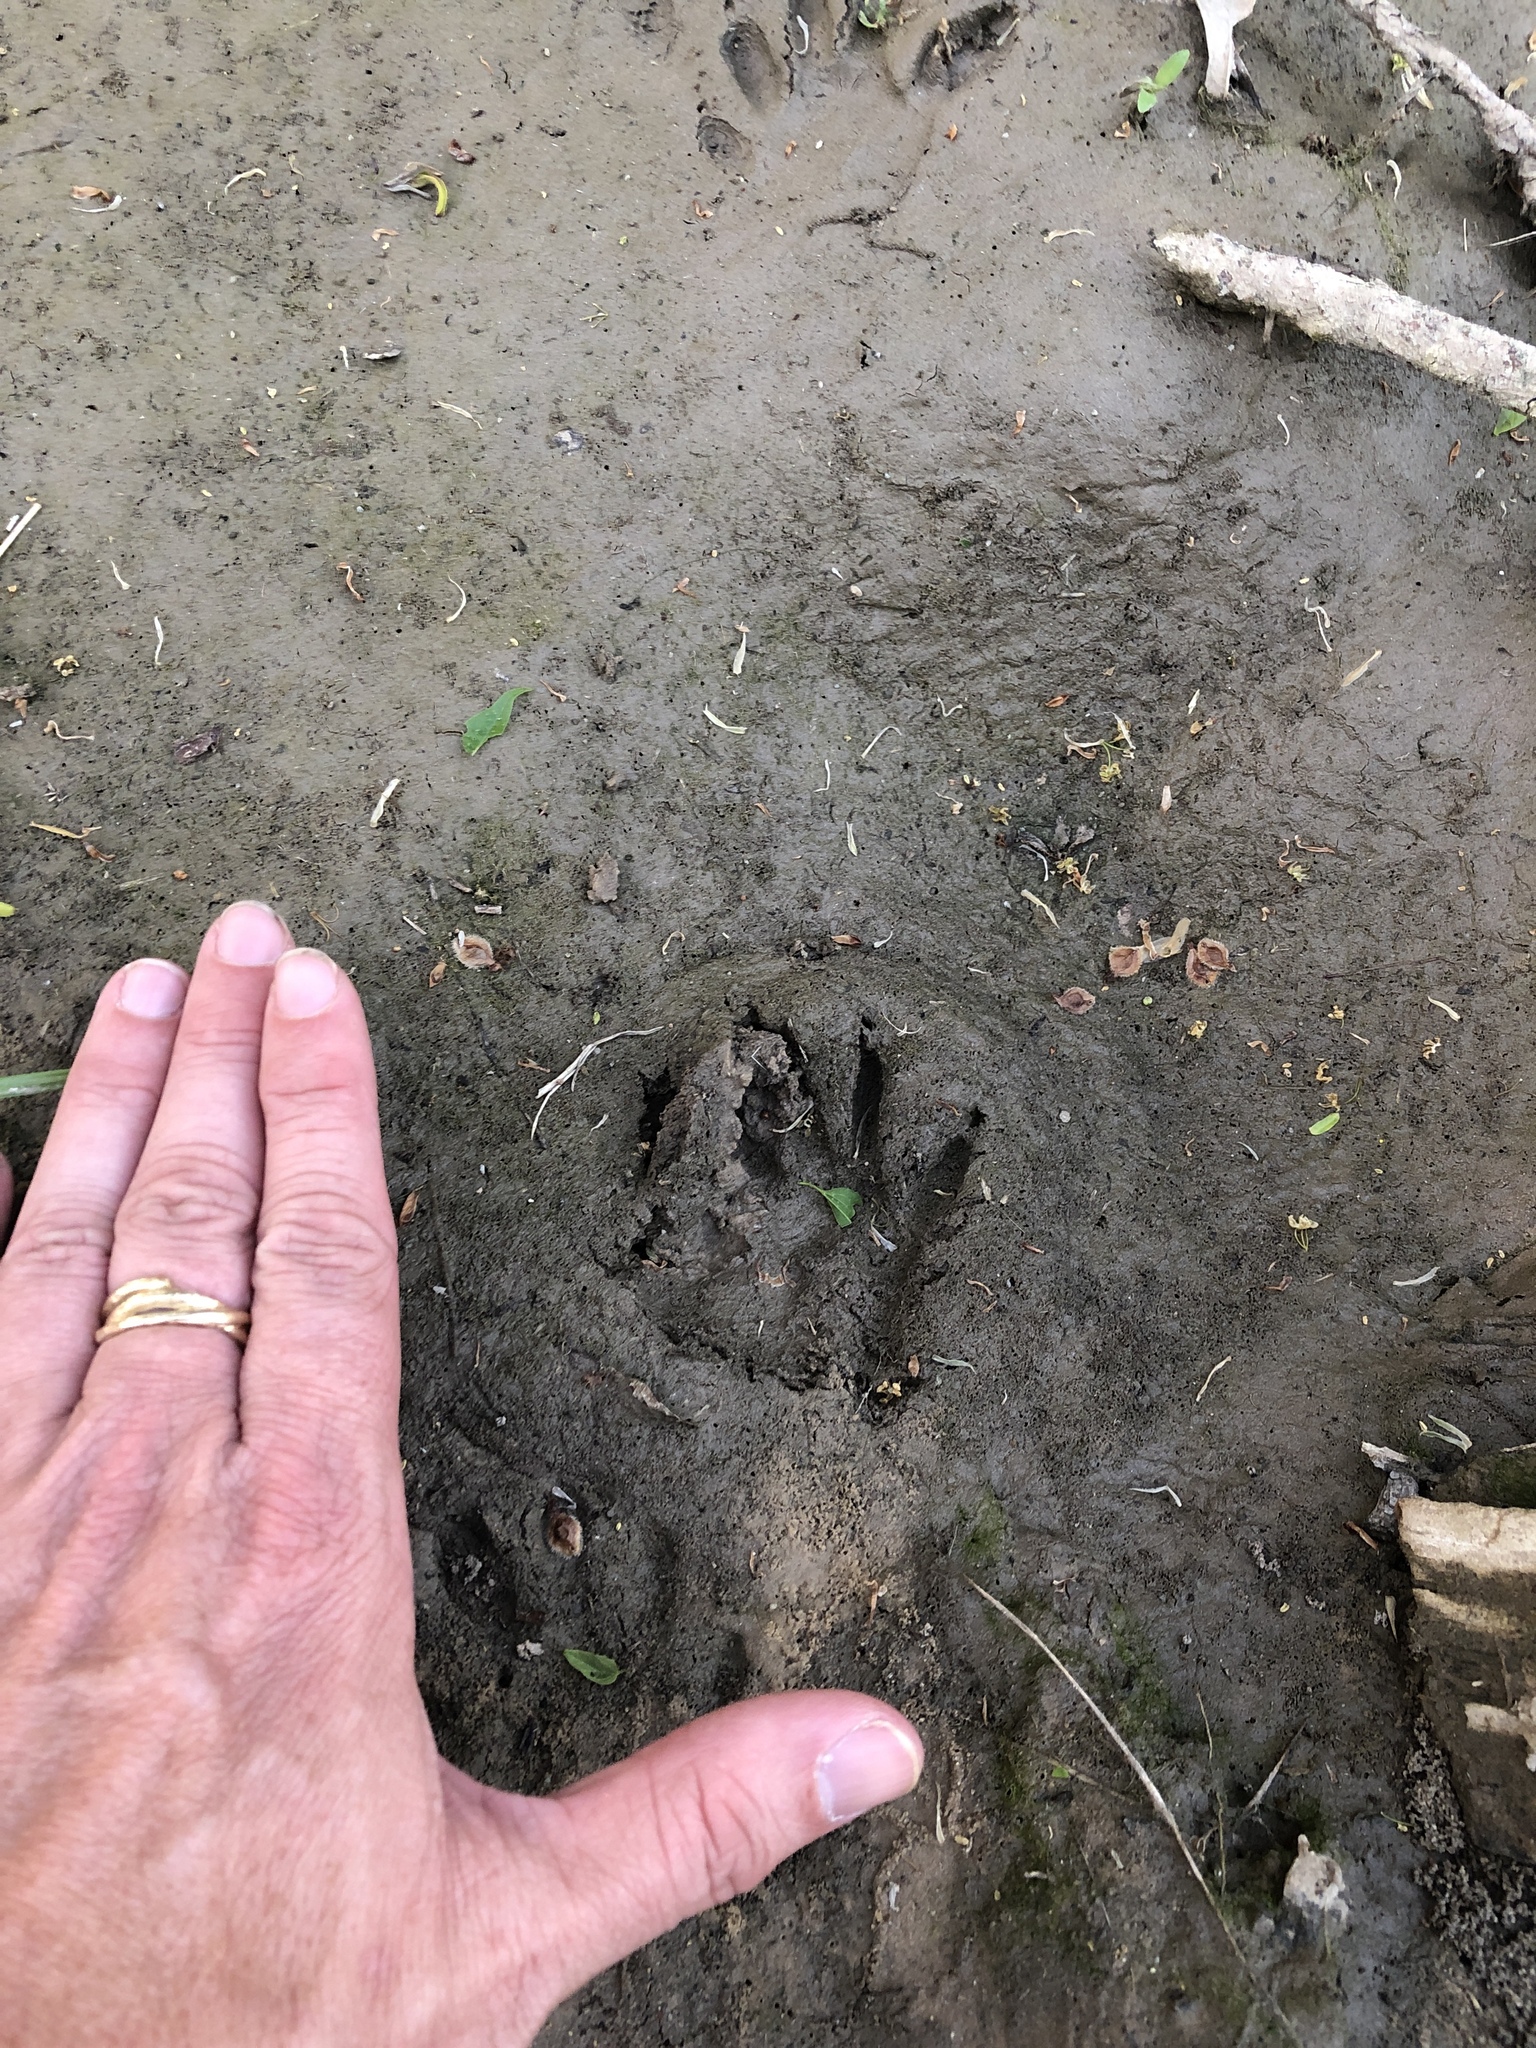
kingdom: Animalia
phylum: Chordata
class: Mammalia
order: Carnivora
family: Procyonidae
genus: Procyon
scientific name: Procyon lotor
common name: Raccoon
